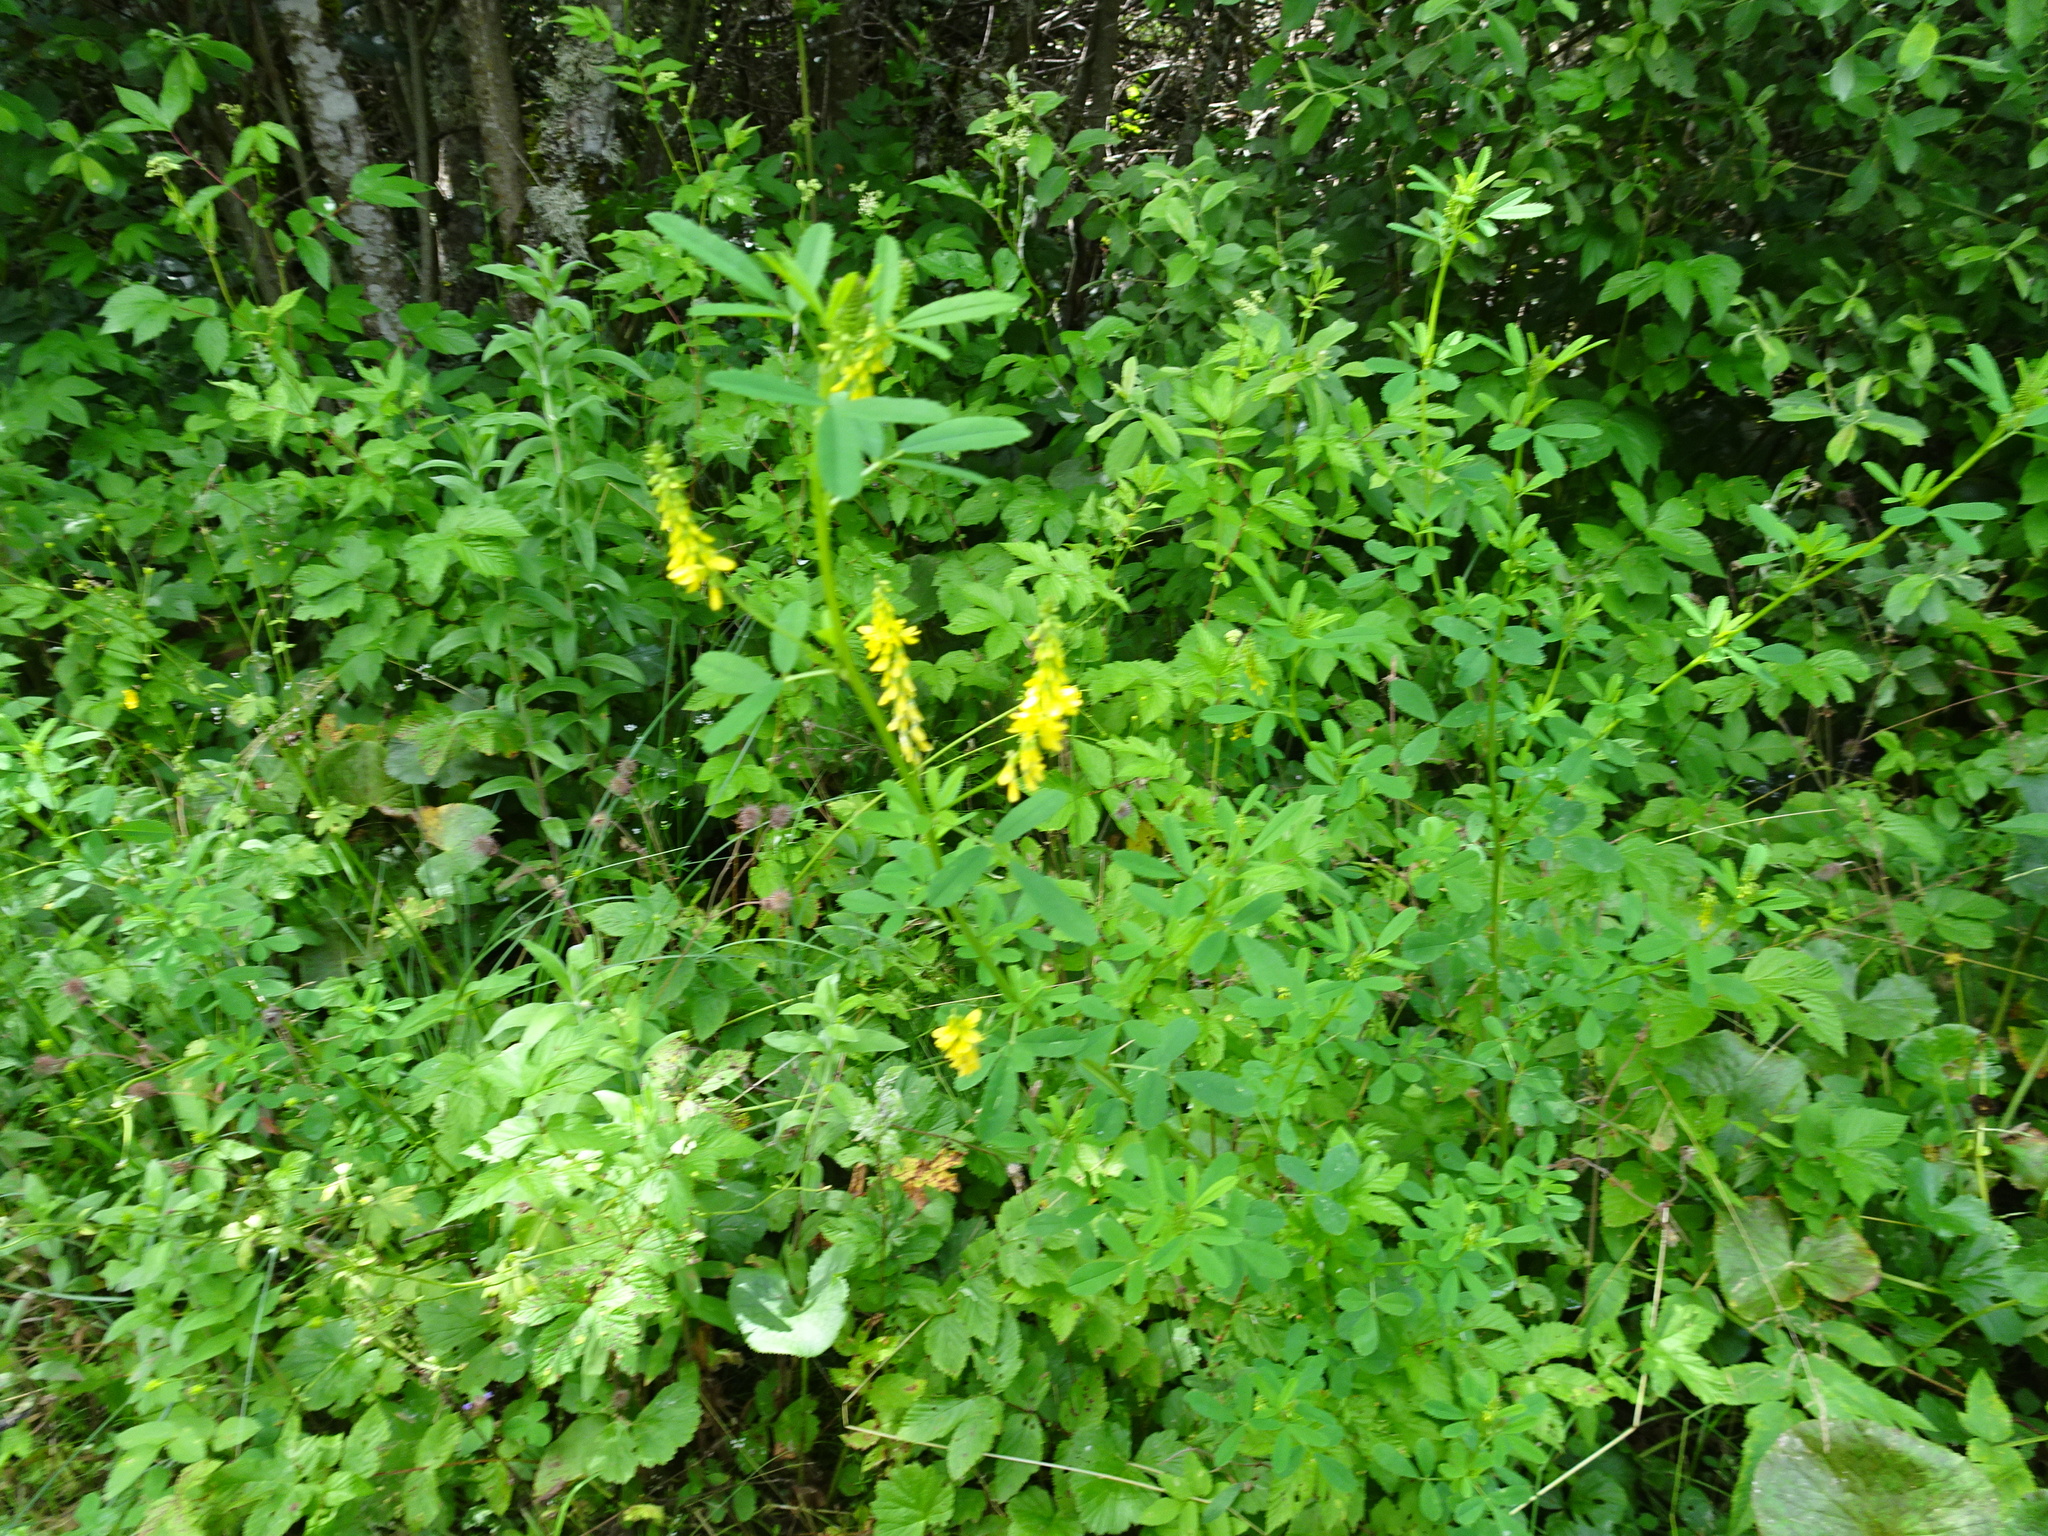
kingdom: Plantae
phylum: Tracheophyta
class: Magnoliopsida
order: Fabales
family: Fabaceae
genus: Melilotus
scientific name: Melilotus officinalis
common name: Sweetclover
